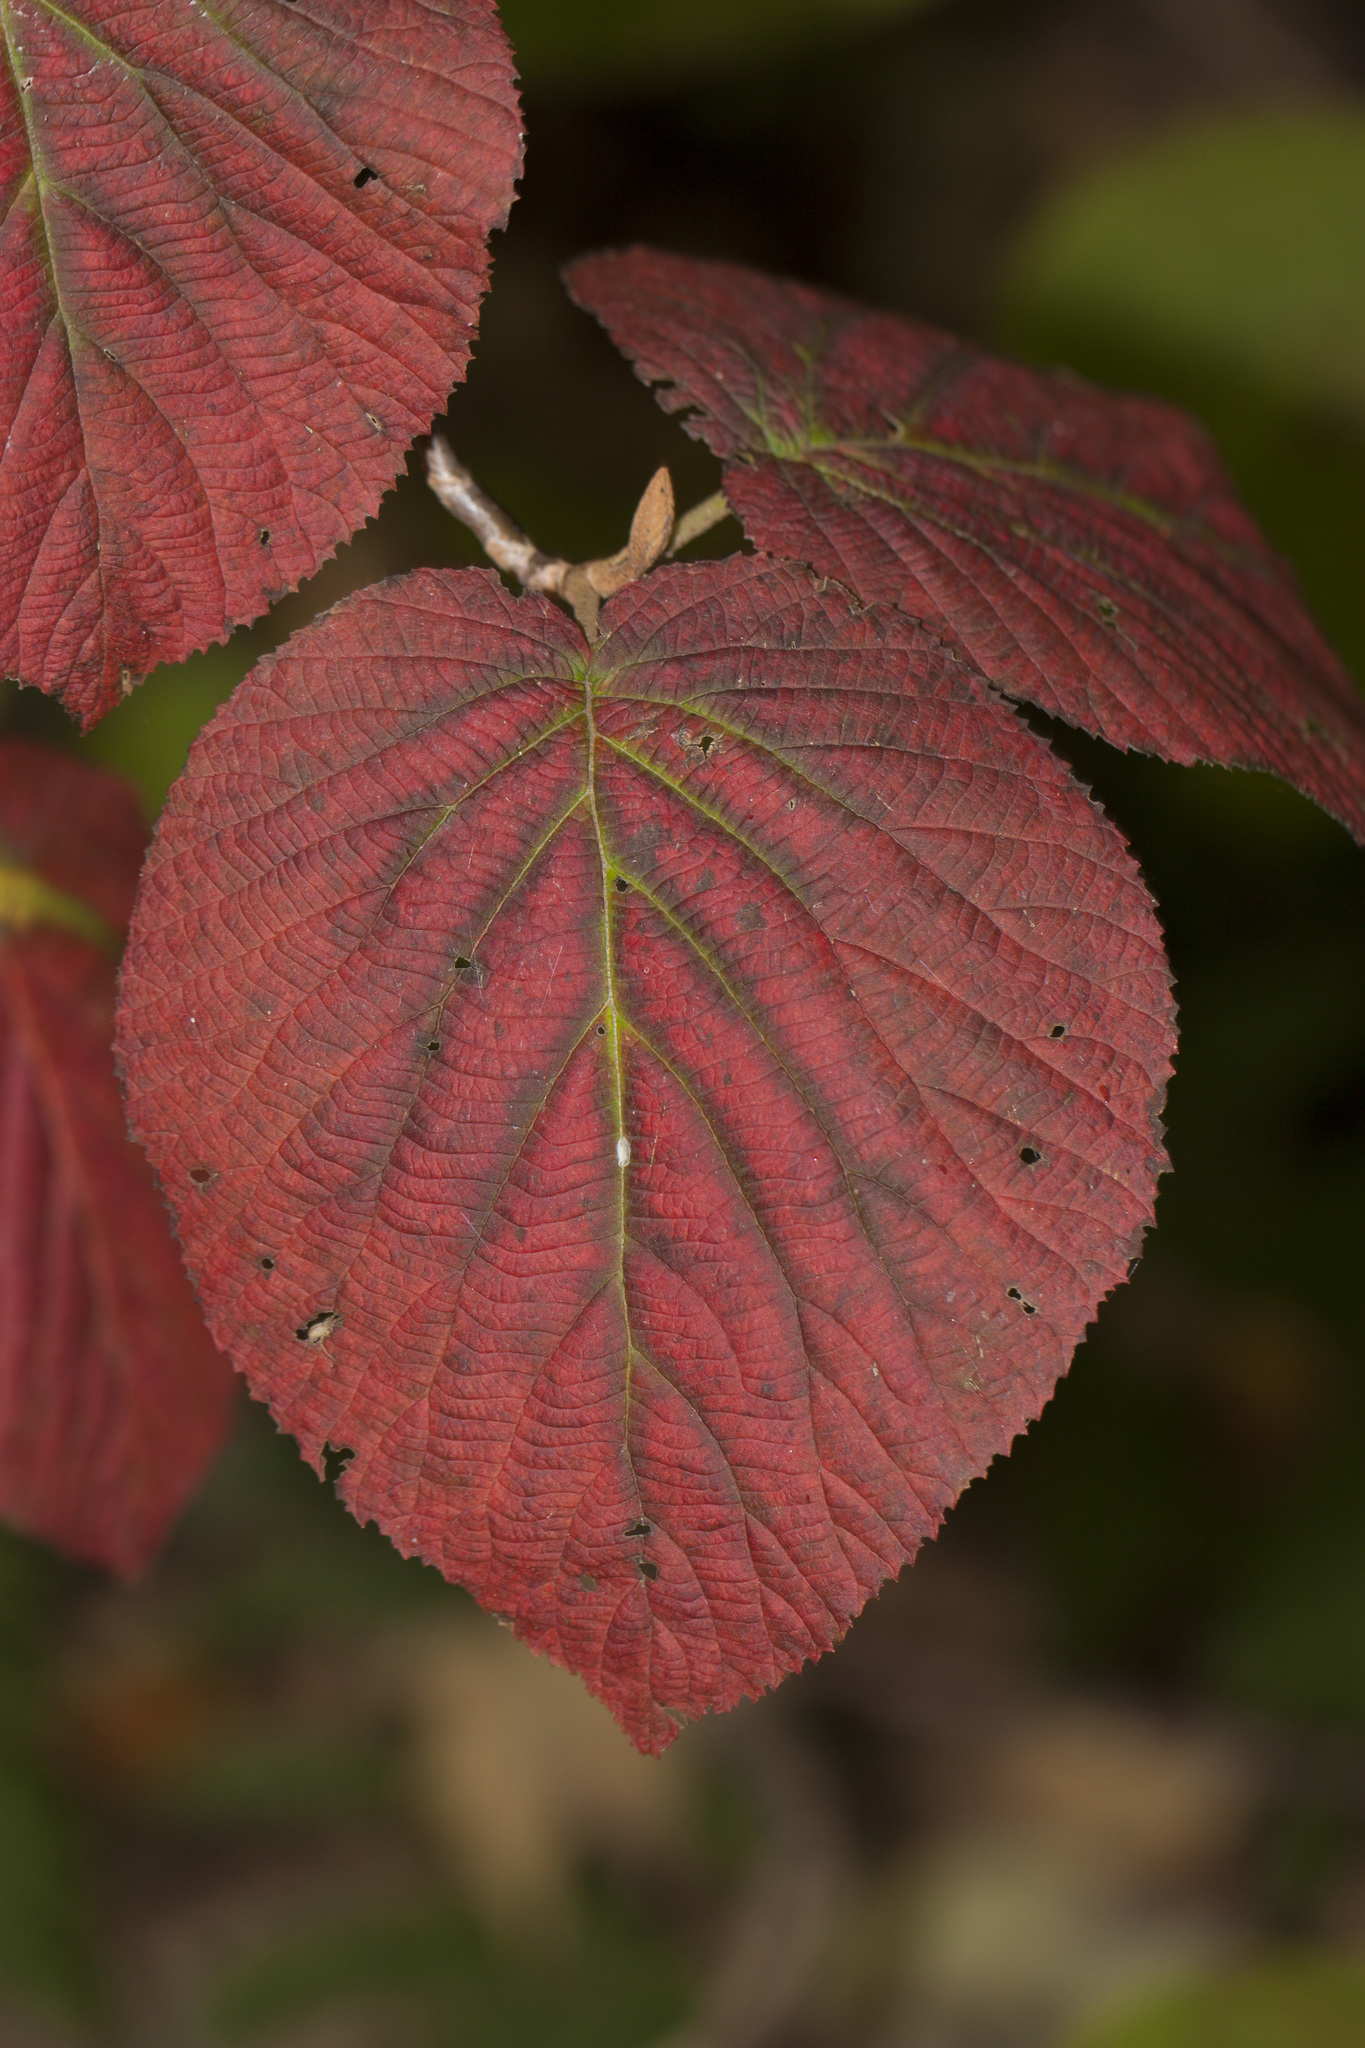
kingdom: Plantae
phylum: Tracheophyta
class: Magnoliopsida
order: Dipsacales
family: Viburnaceae
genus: Viburnum
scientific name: Viburnum lantanoides
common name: Hobblebush
